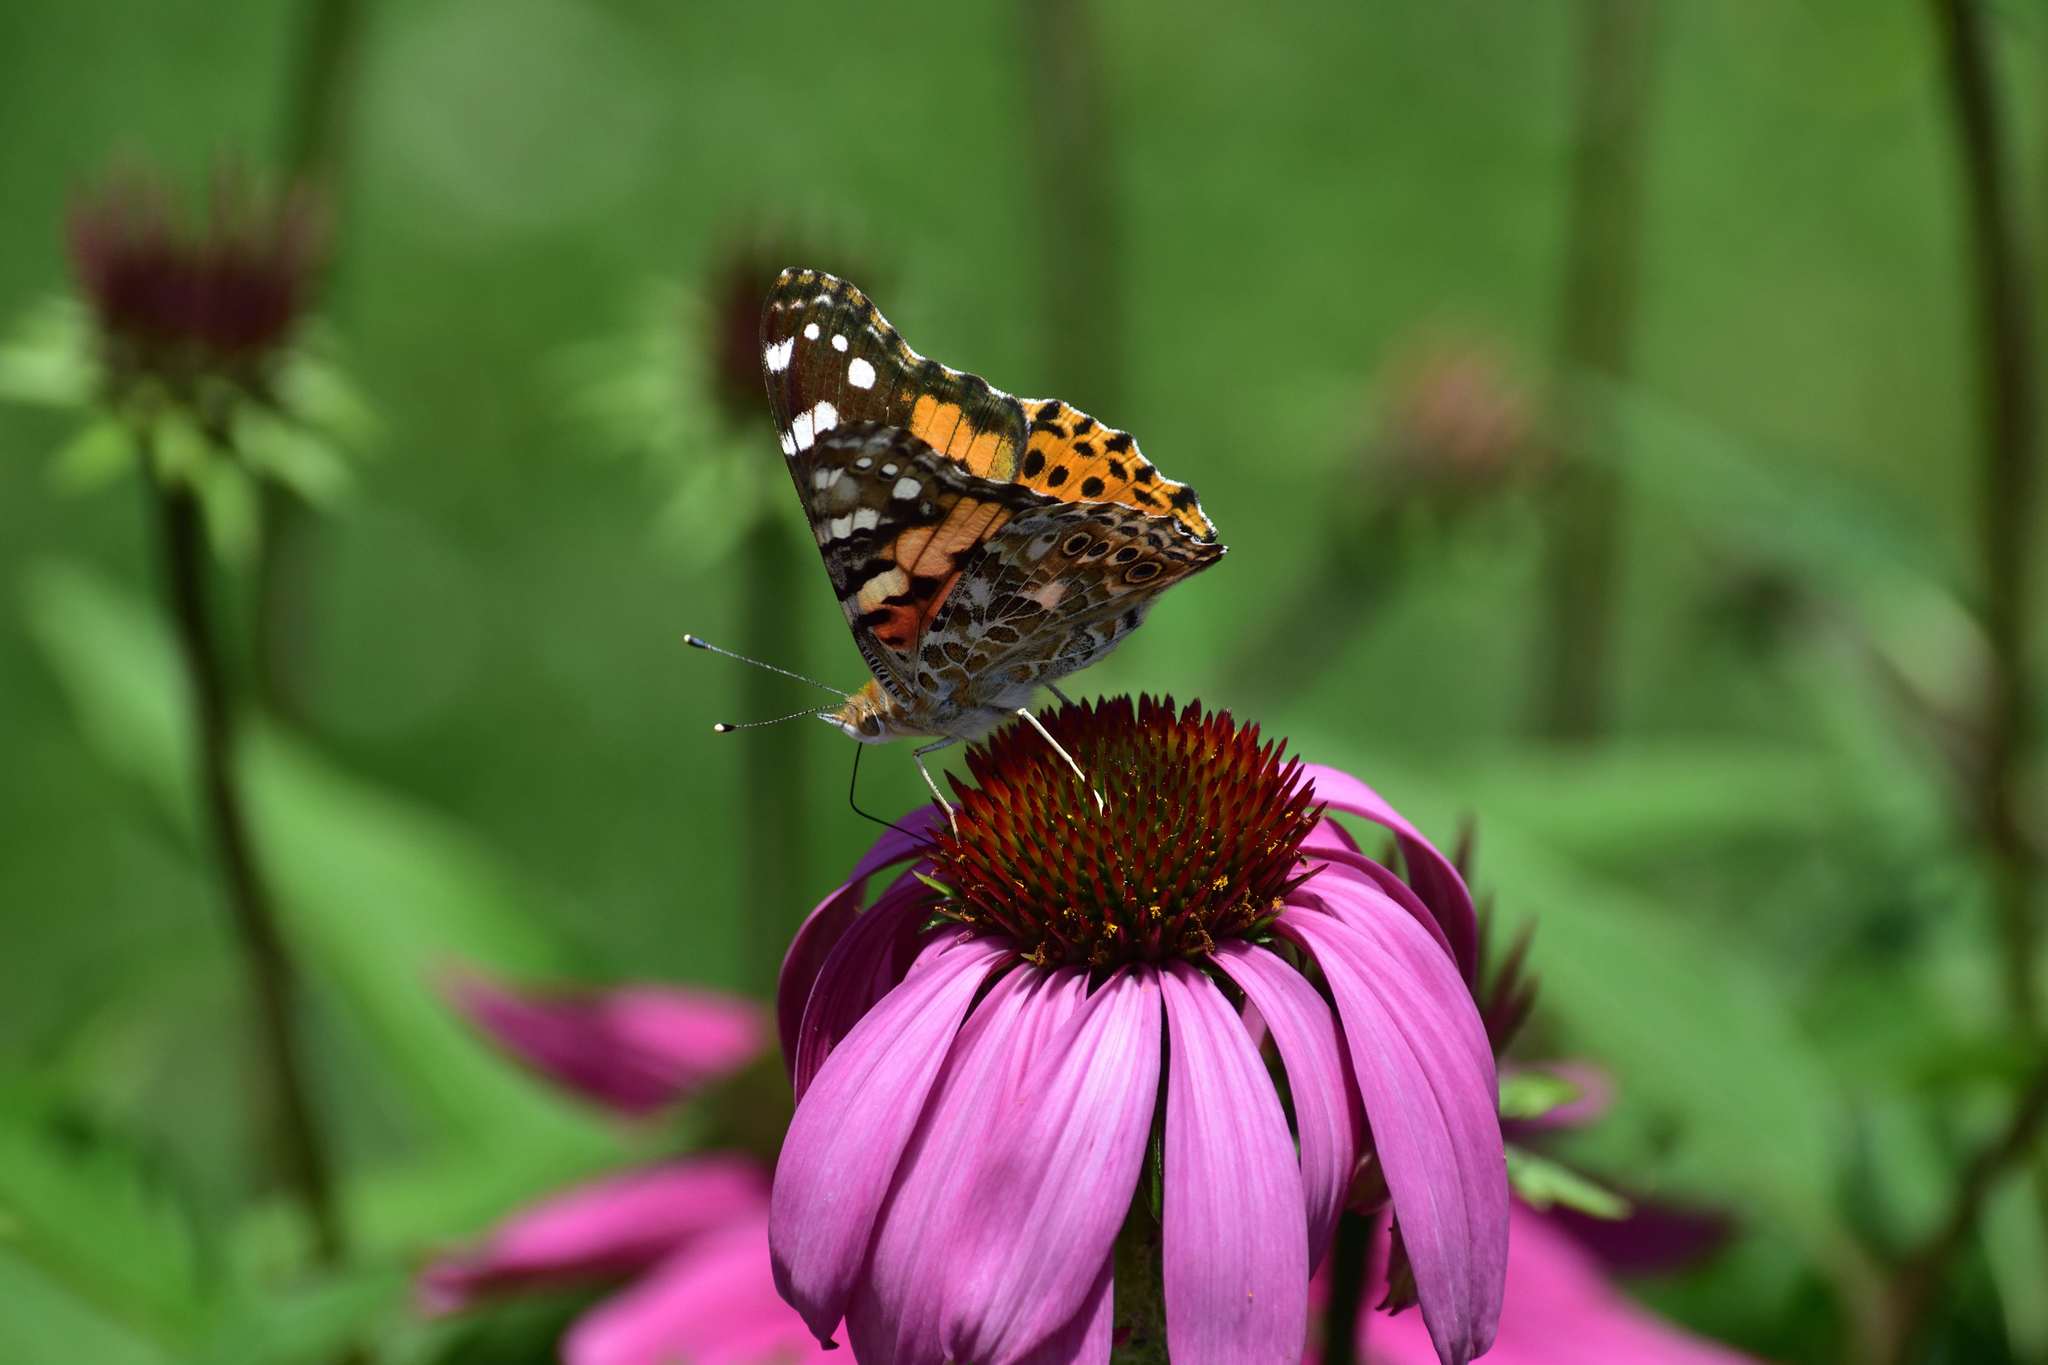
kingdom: Animalia
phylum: Arthropoda
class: Insecta
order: Lepidoptera
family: Nymphalidae
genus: Vanessa
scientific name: Vanessa cardui
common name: Painted lady
